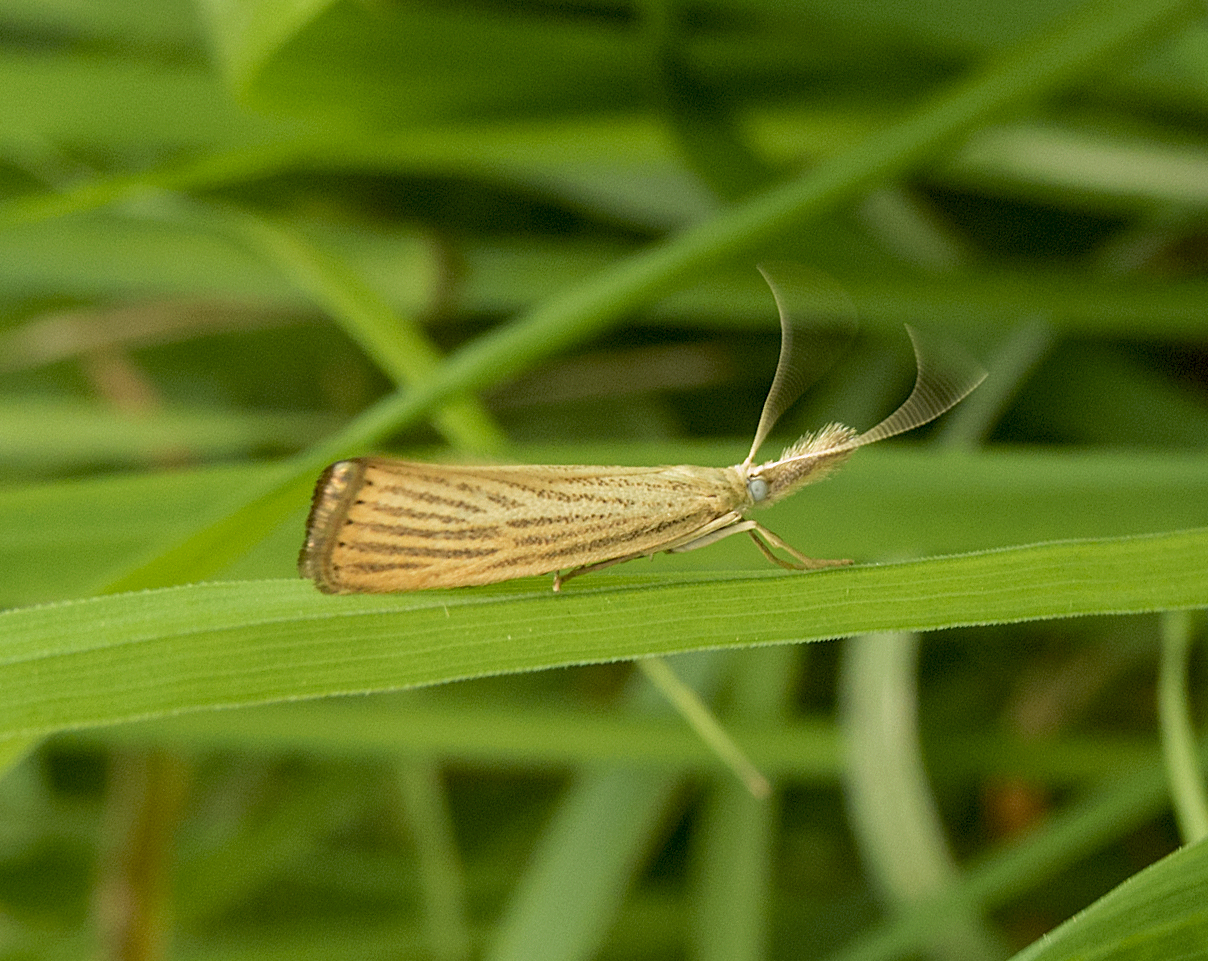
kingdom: Animalia
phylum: Arthropoda
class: Insecta
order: Lepidoptera
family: Crambidae
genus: Agriphila
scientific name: Agriphila straminella
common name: Straw grass-veneer
